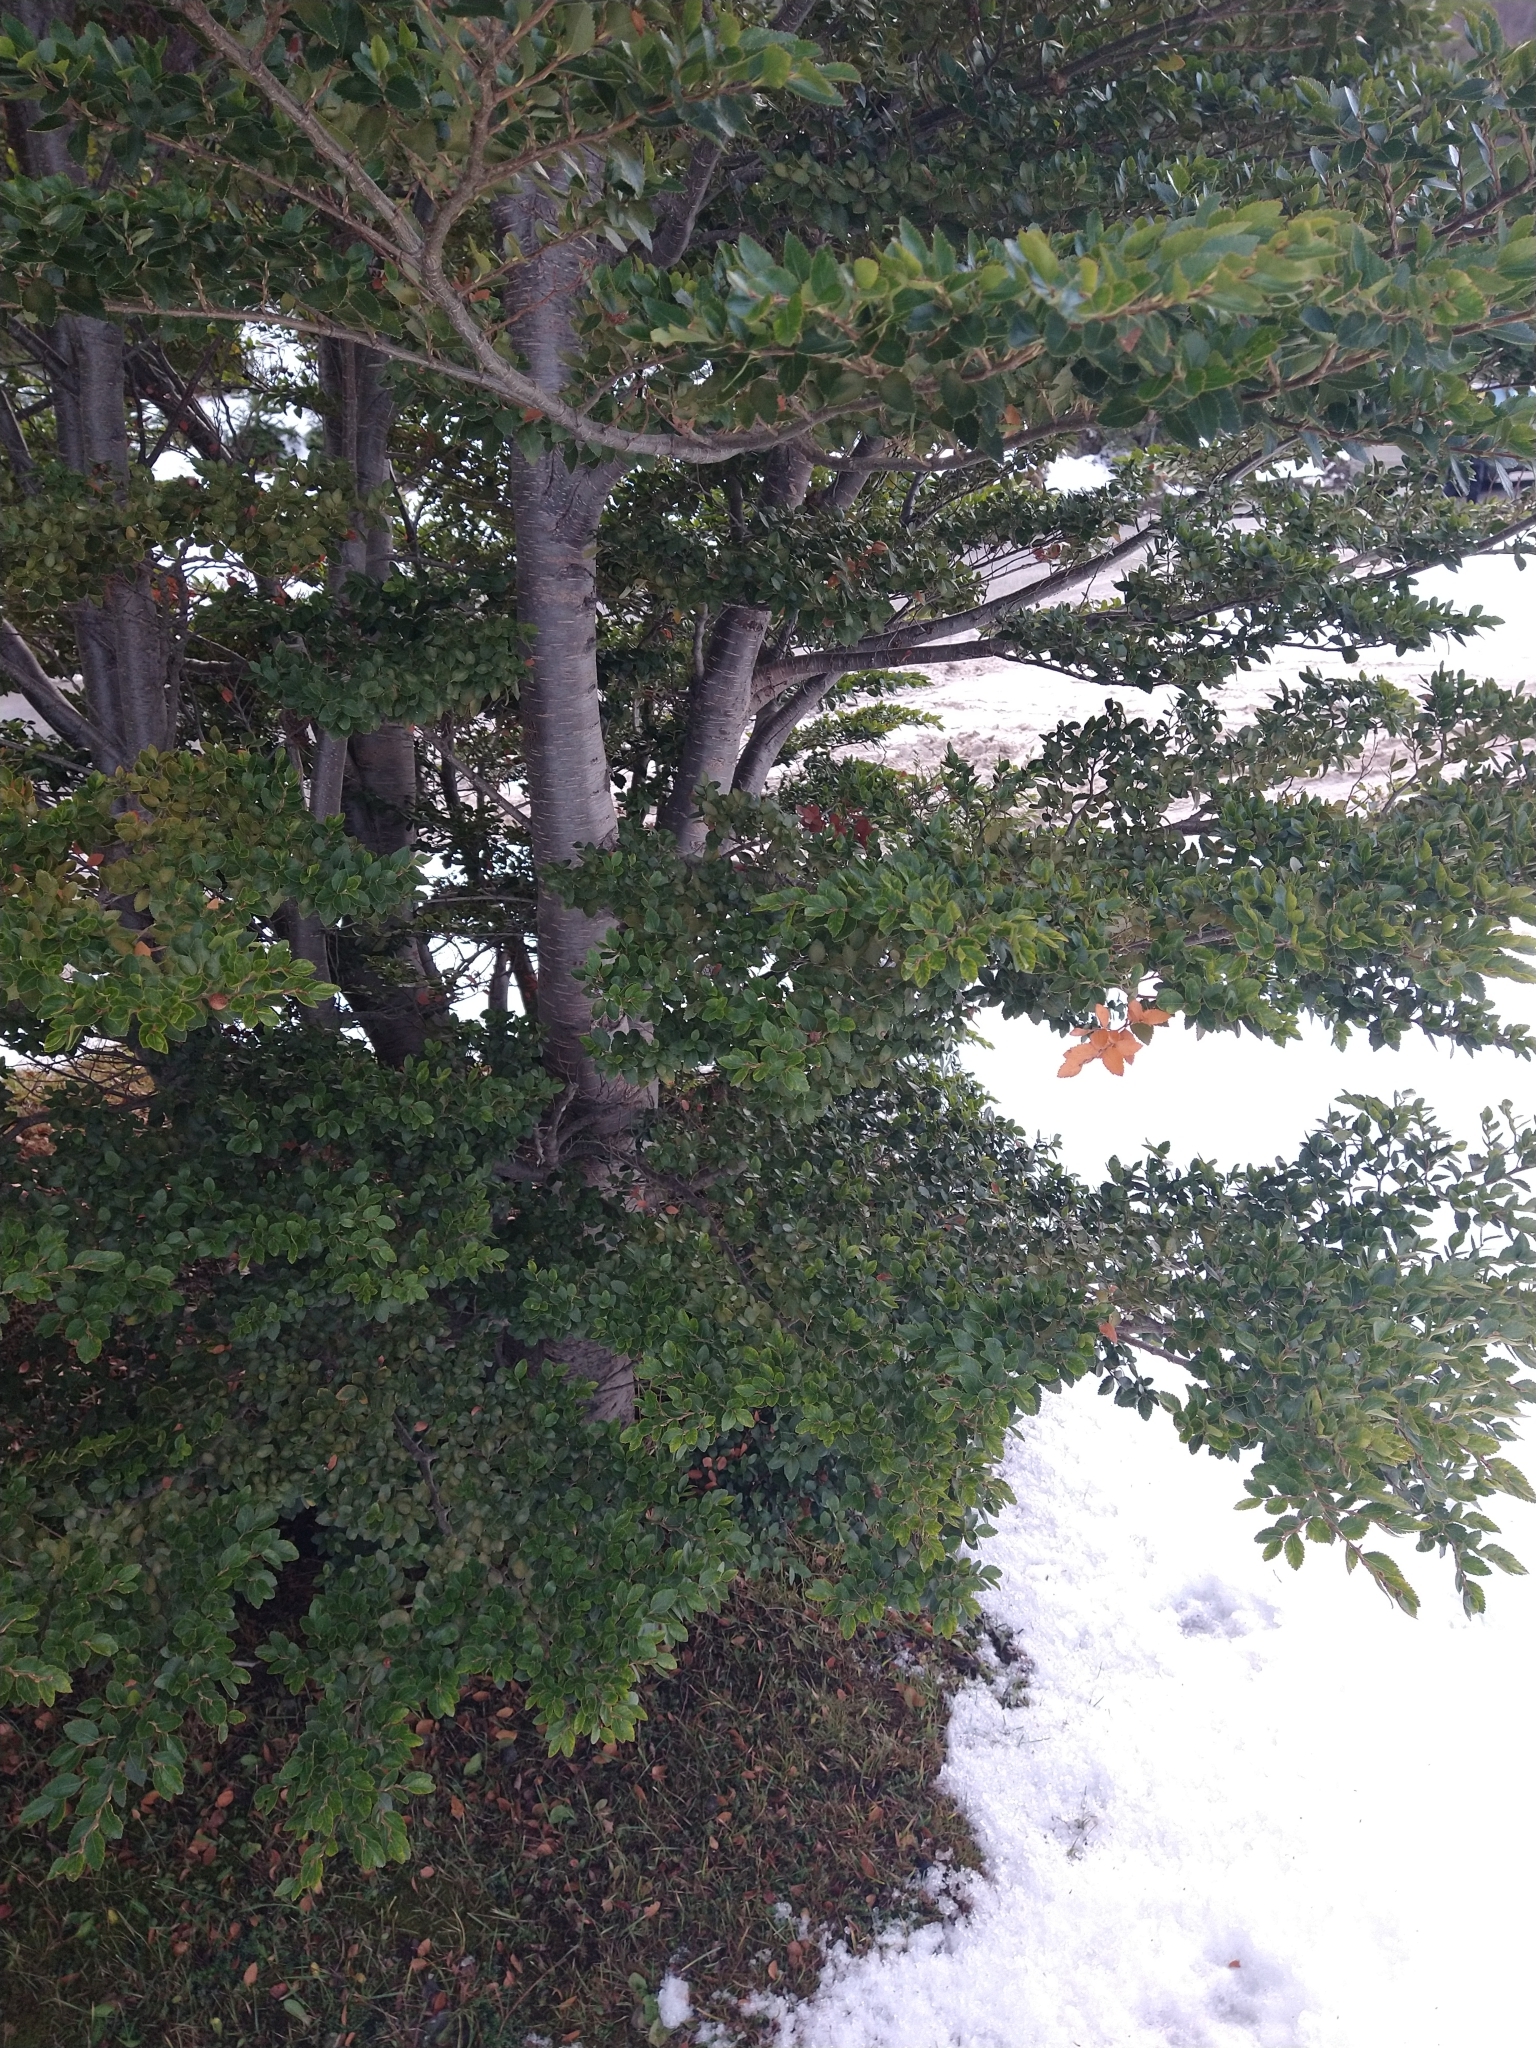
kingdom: Plantae
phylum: Tracheophyta
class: Magnoliopsida
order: Fagales
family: Nothofagaceae
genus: Nothofagus
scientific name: Nothofagus betuloides
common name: Magellan's beech
